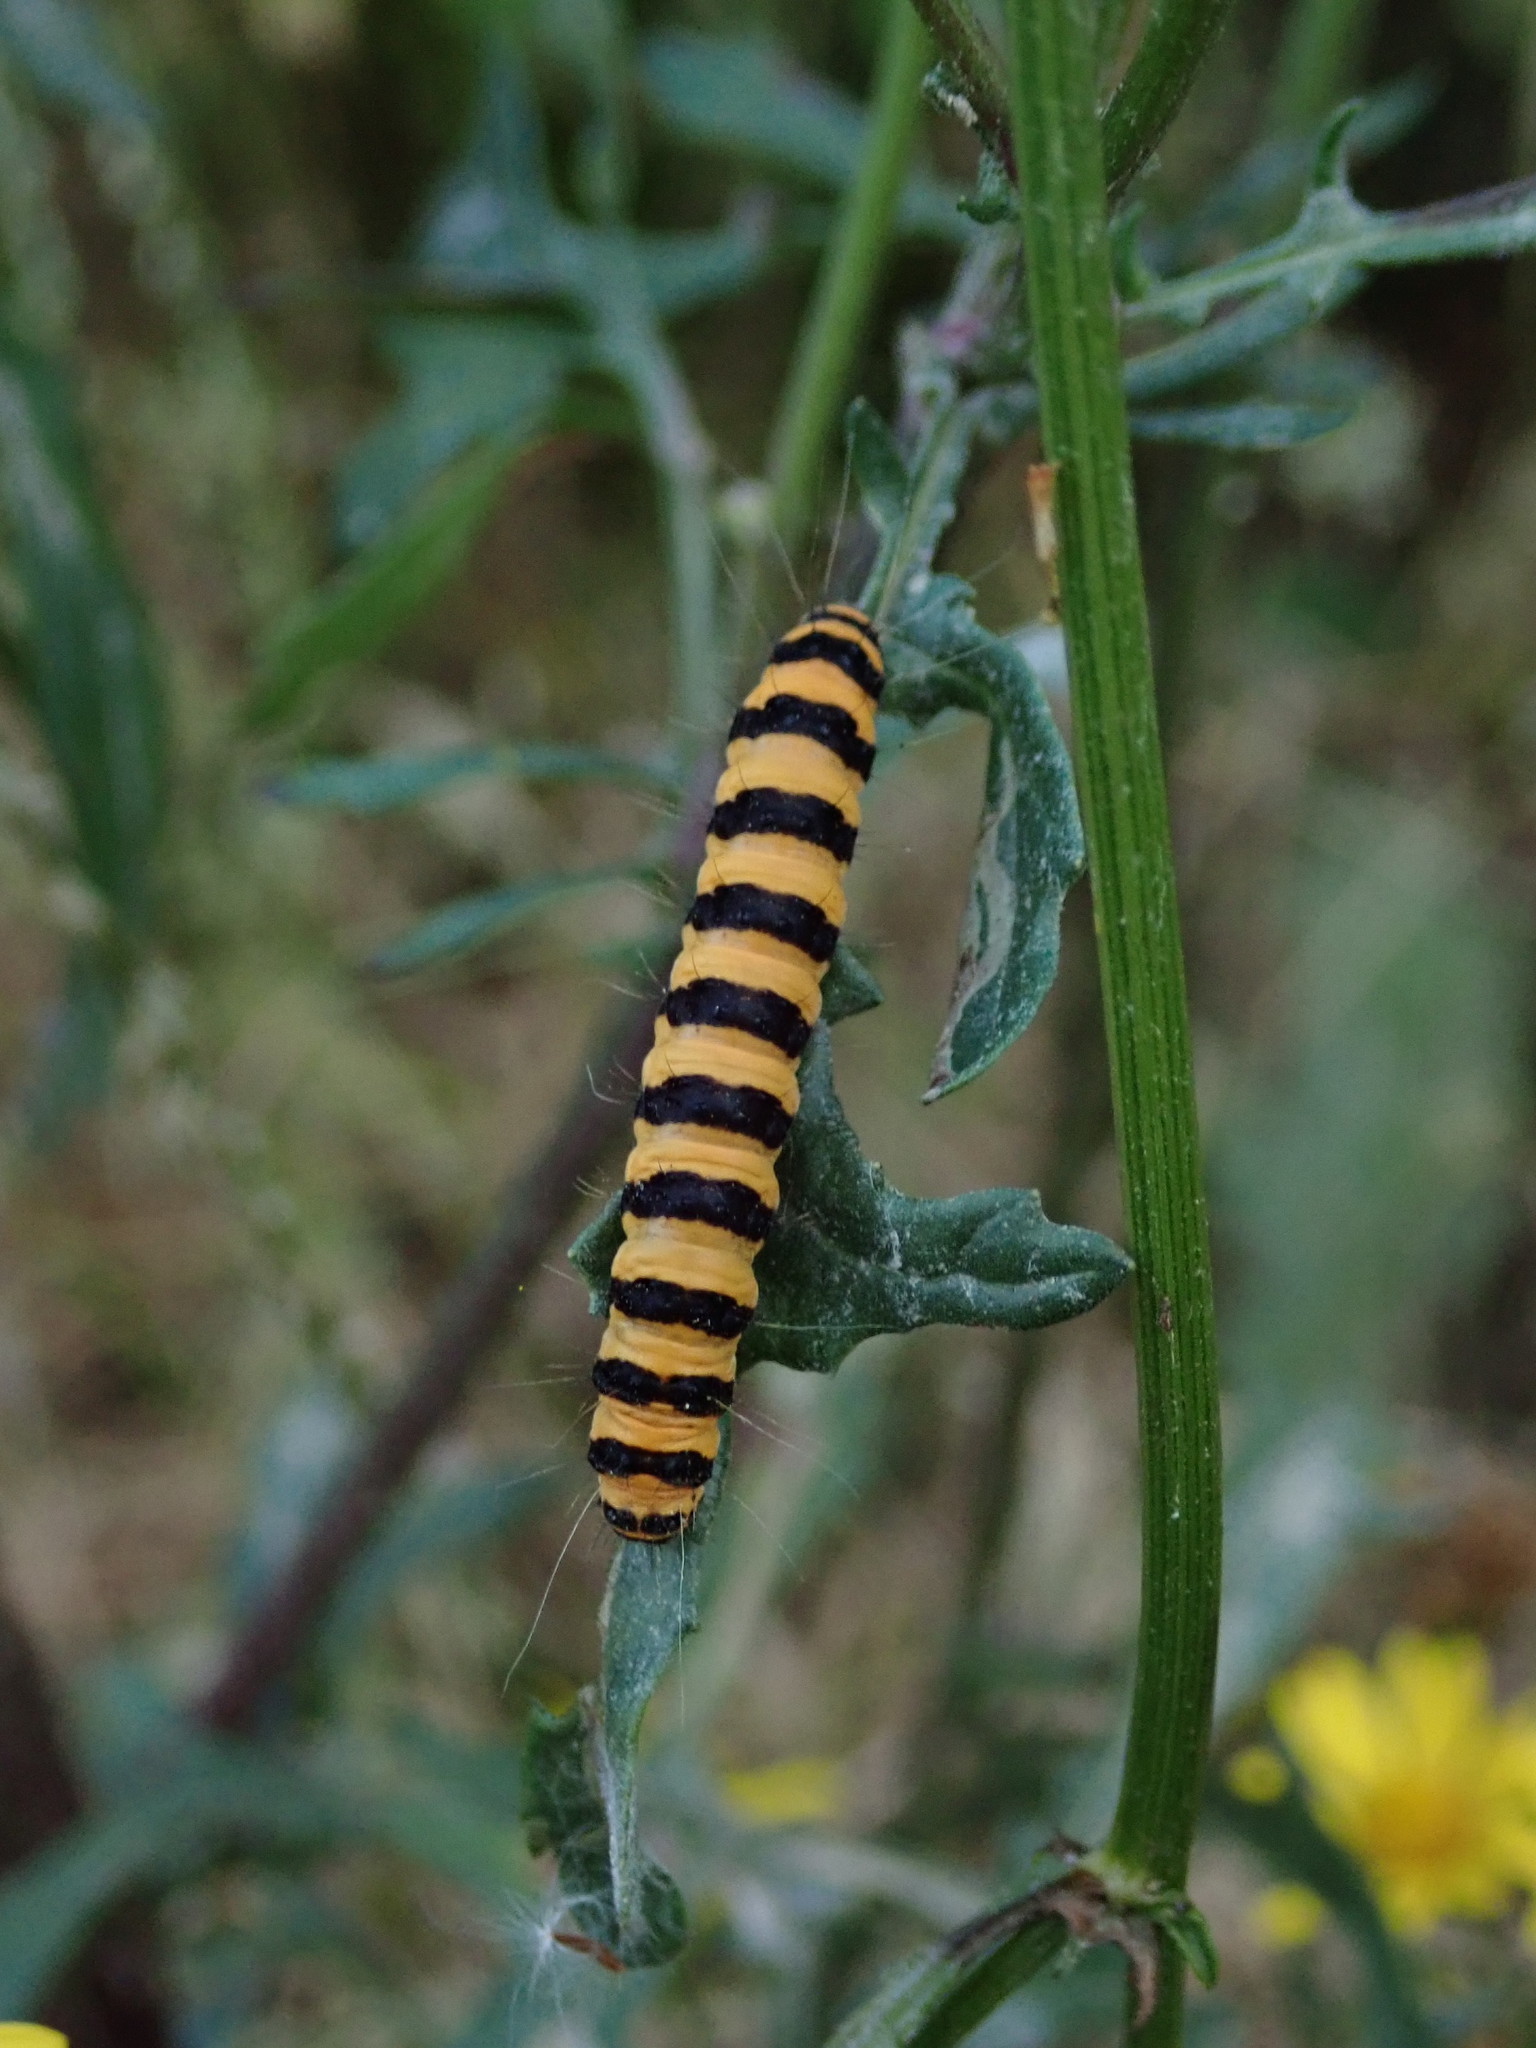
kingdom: Animalia
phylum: Arthropoda
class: Insecta
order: Lepidoptera
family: Erebidae
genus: Tyria
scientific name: Tyria jacobaeae
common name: Cinnabar
